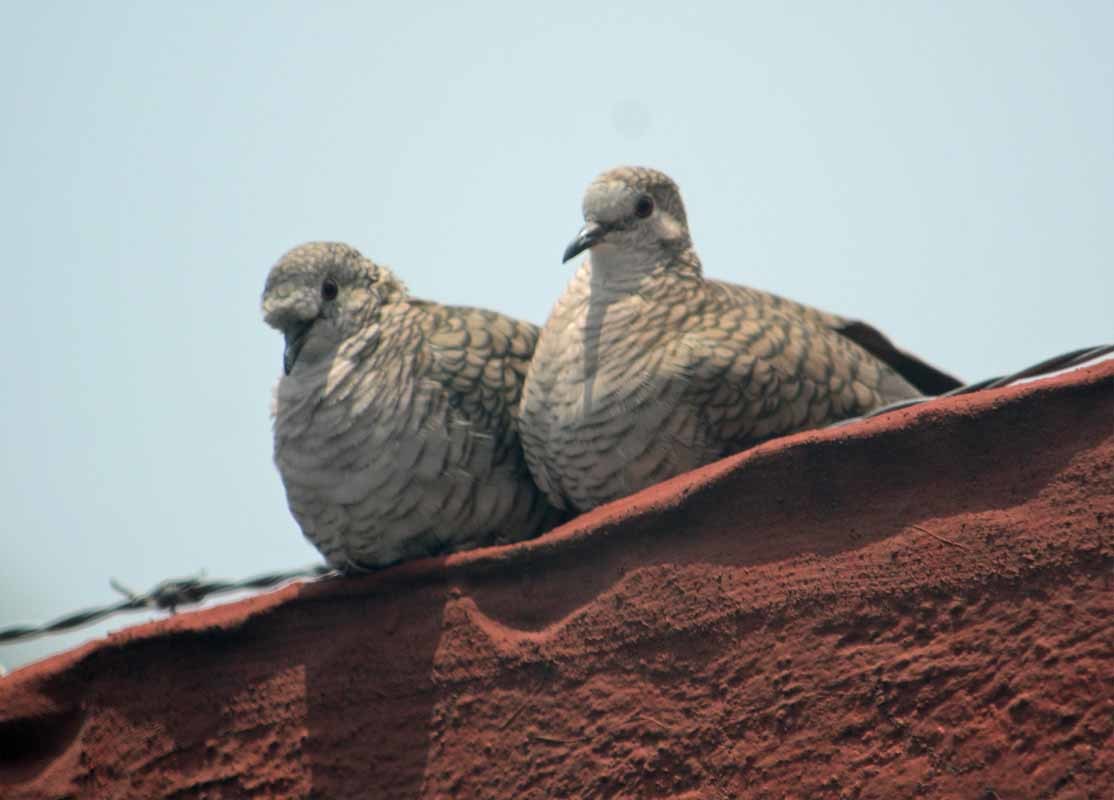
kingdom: Animalia
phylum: Chordata
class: Aves
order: Columbiformes
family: Columbidae
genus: Columbina
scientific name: Columbina inca
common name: Inca dove
